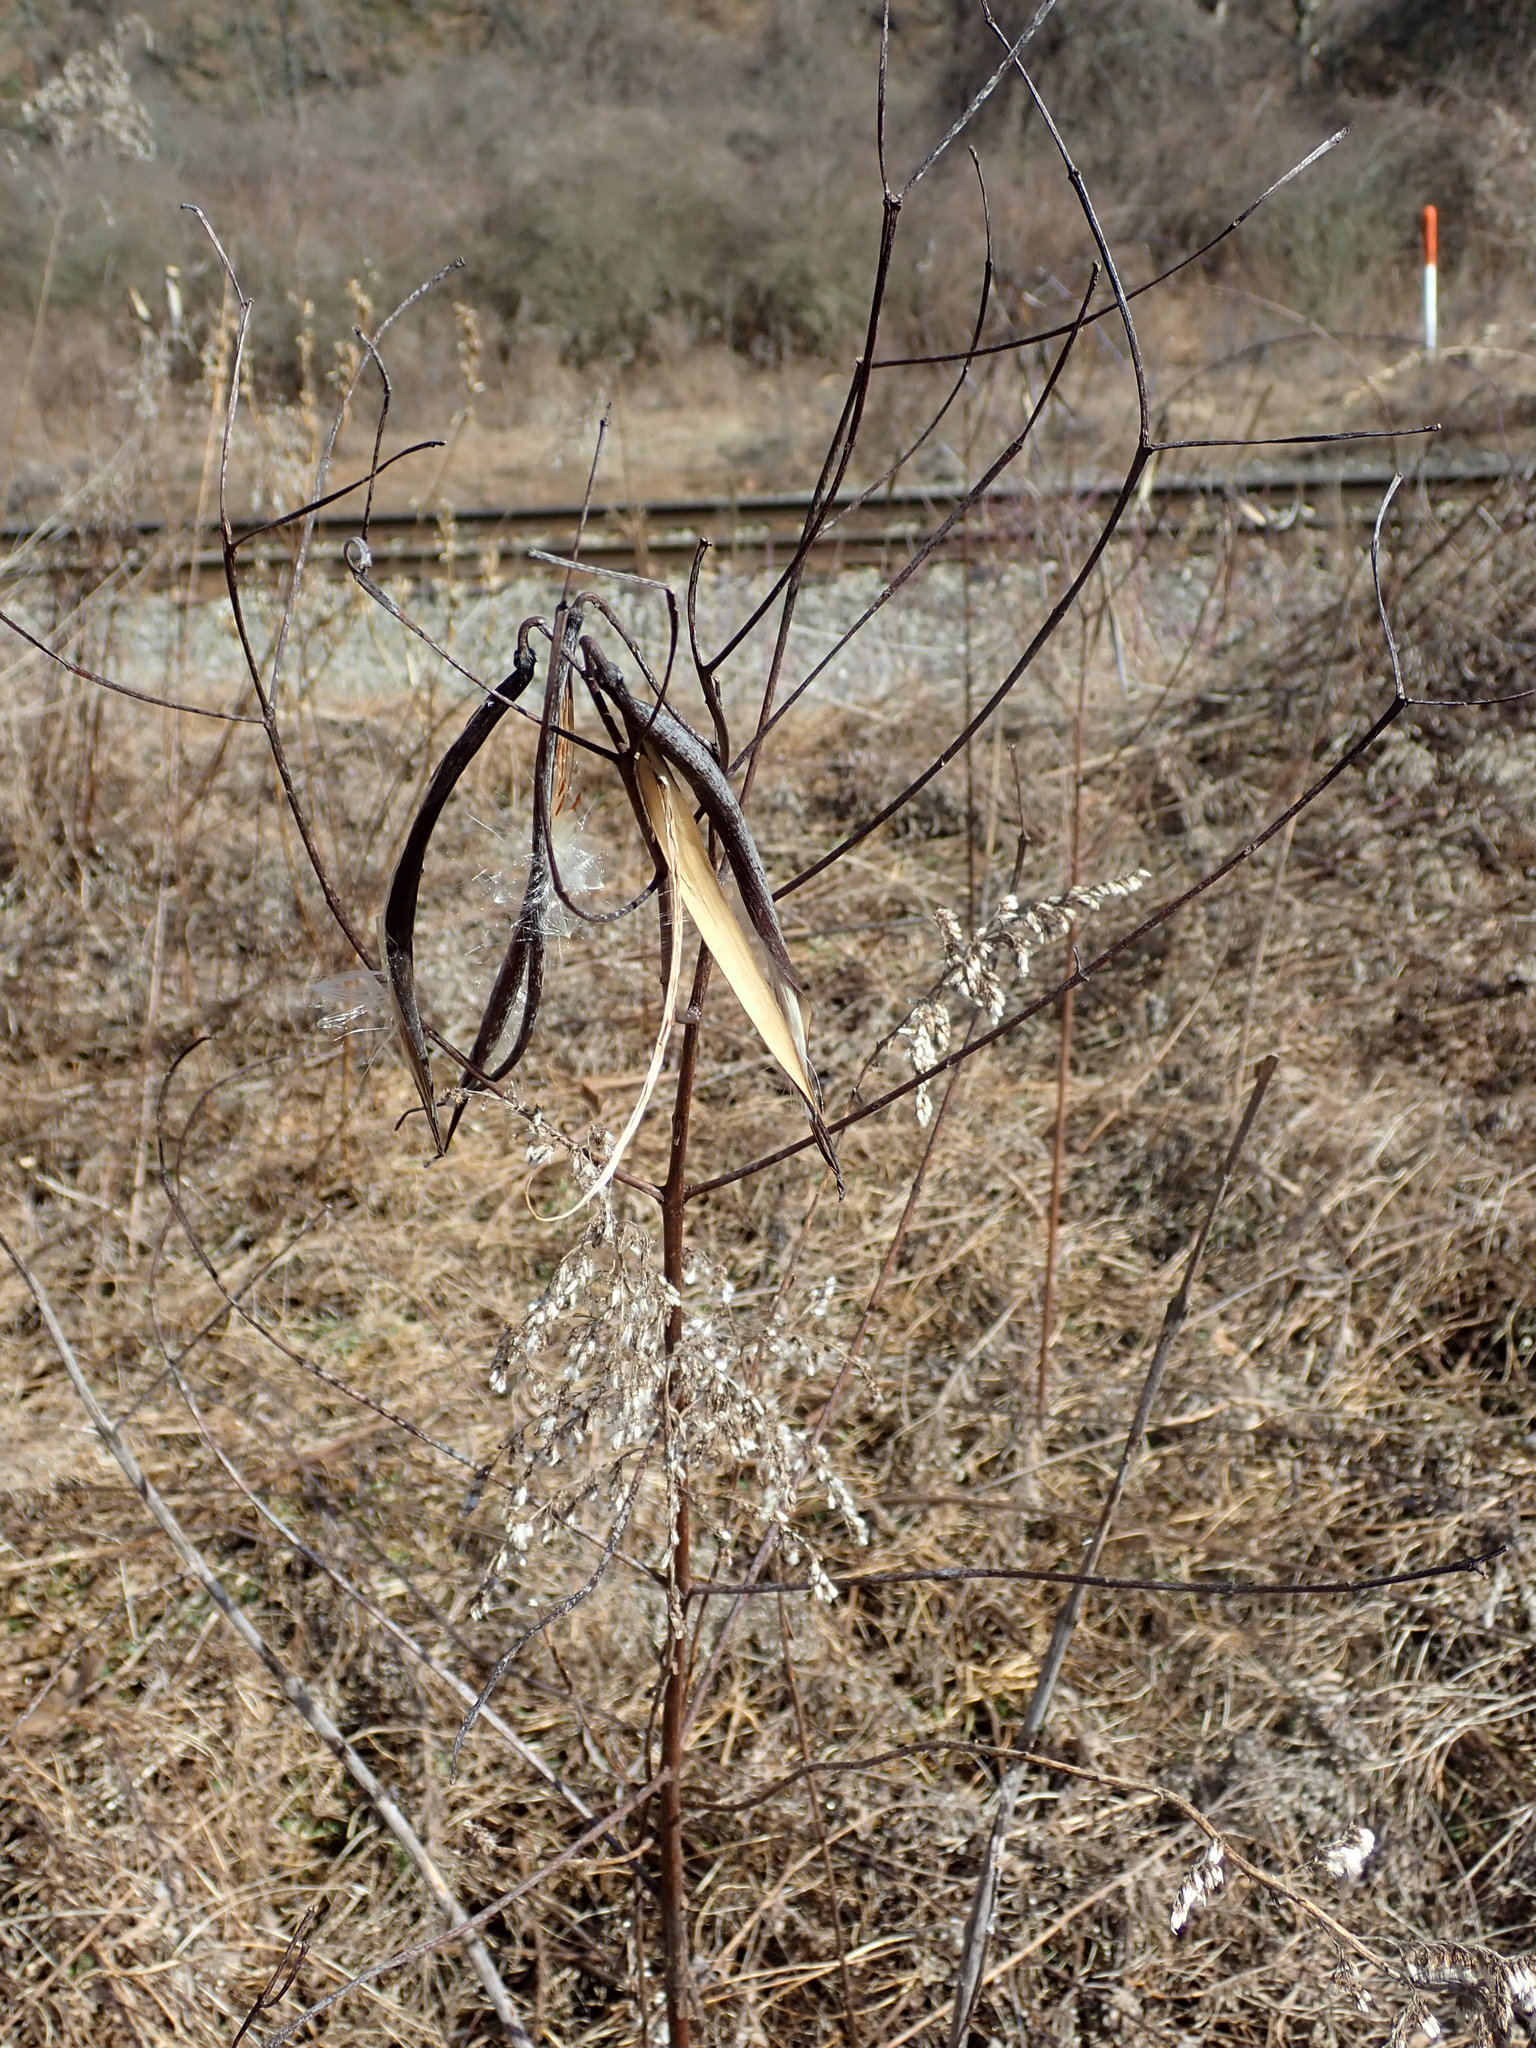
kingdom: Plantae
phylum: Tracheophyta
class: Magnoliopsida
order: Gentianales
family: Apocynaceae
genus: Apocynum
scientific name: Apocynum cannabinum
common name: Hemp dogbane
